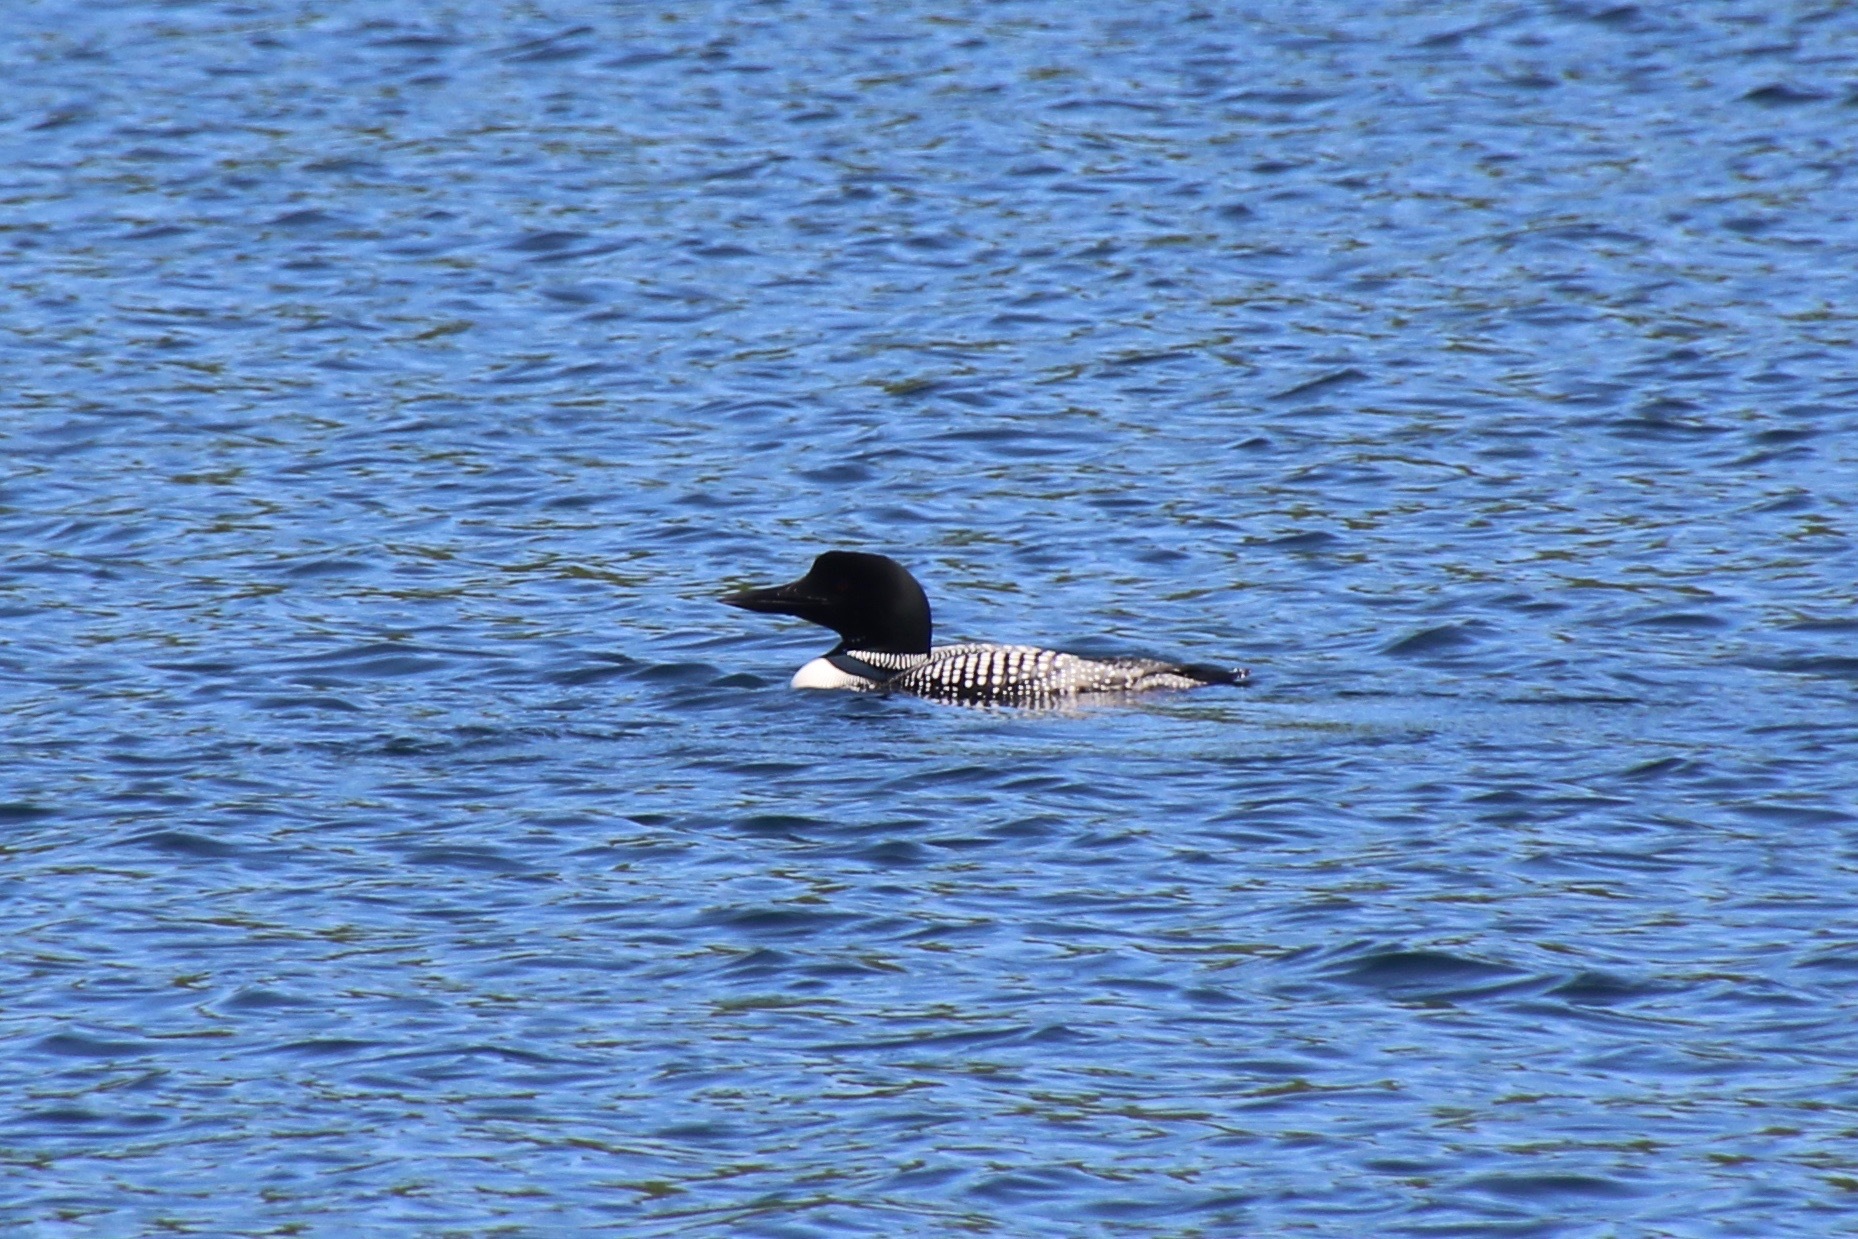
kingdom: Animalia
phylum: Chordata
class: Aves
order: Gaviiformes
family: Gaviidae
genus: Gavia
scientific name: Gavia immer
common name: Common loon
